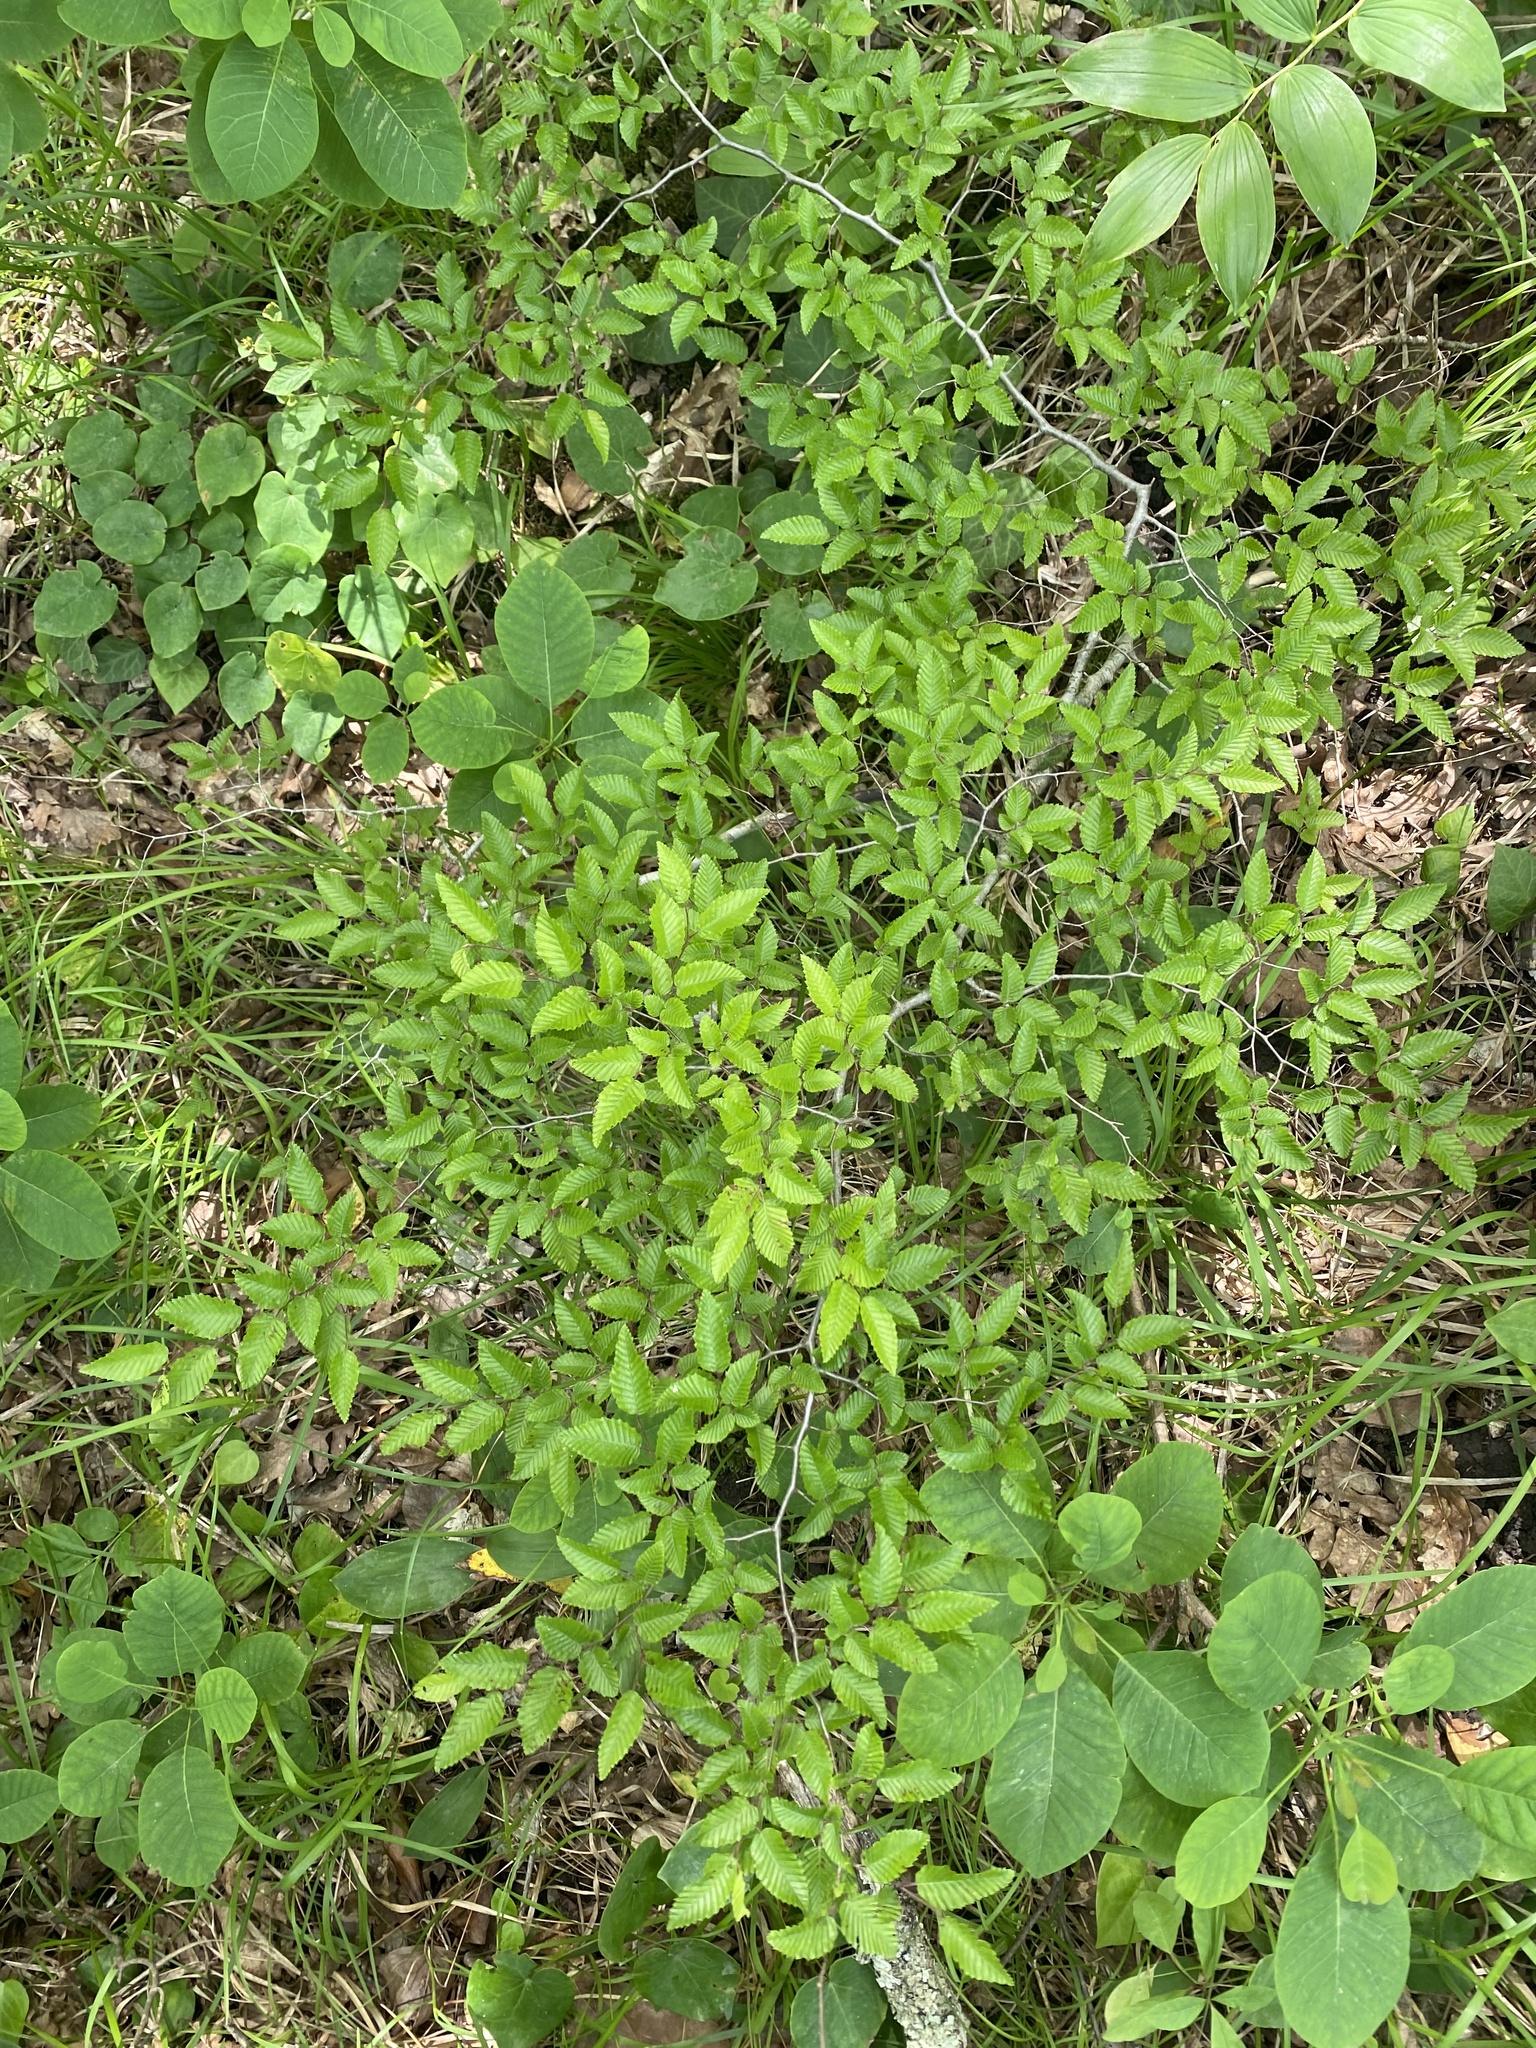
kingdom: Plantae
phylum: Tracheophyta
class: Magnoliopsida
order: Fagales
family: Betulaceae
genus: Carpinus
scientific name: Carpinus orientalis
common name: Eastern hornbeam
